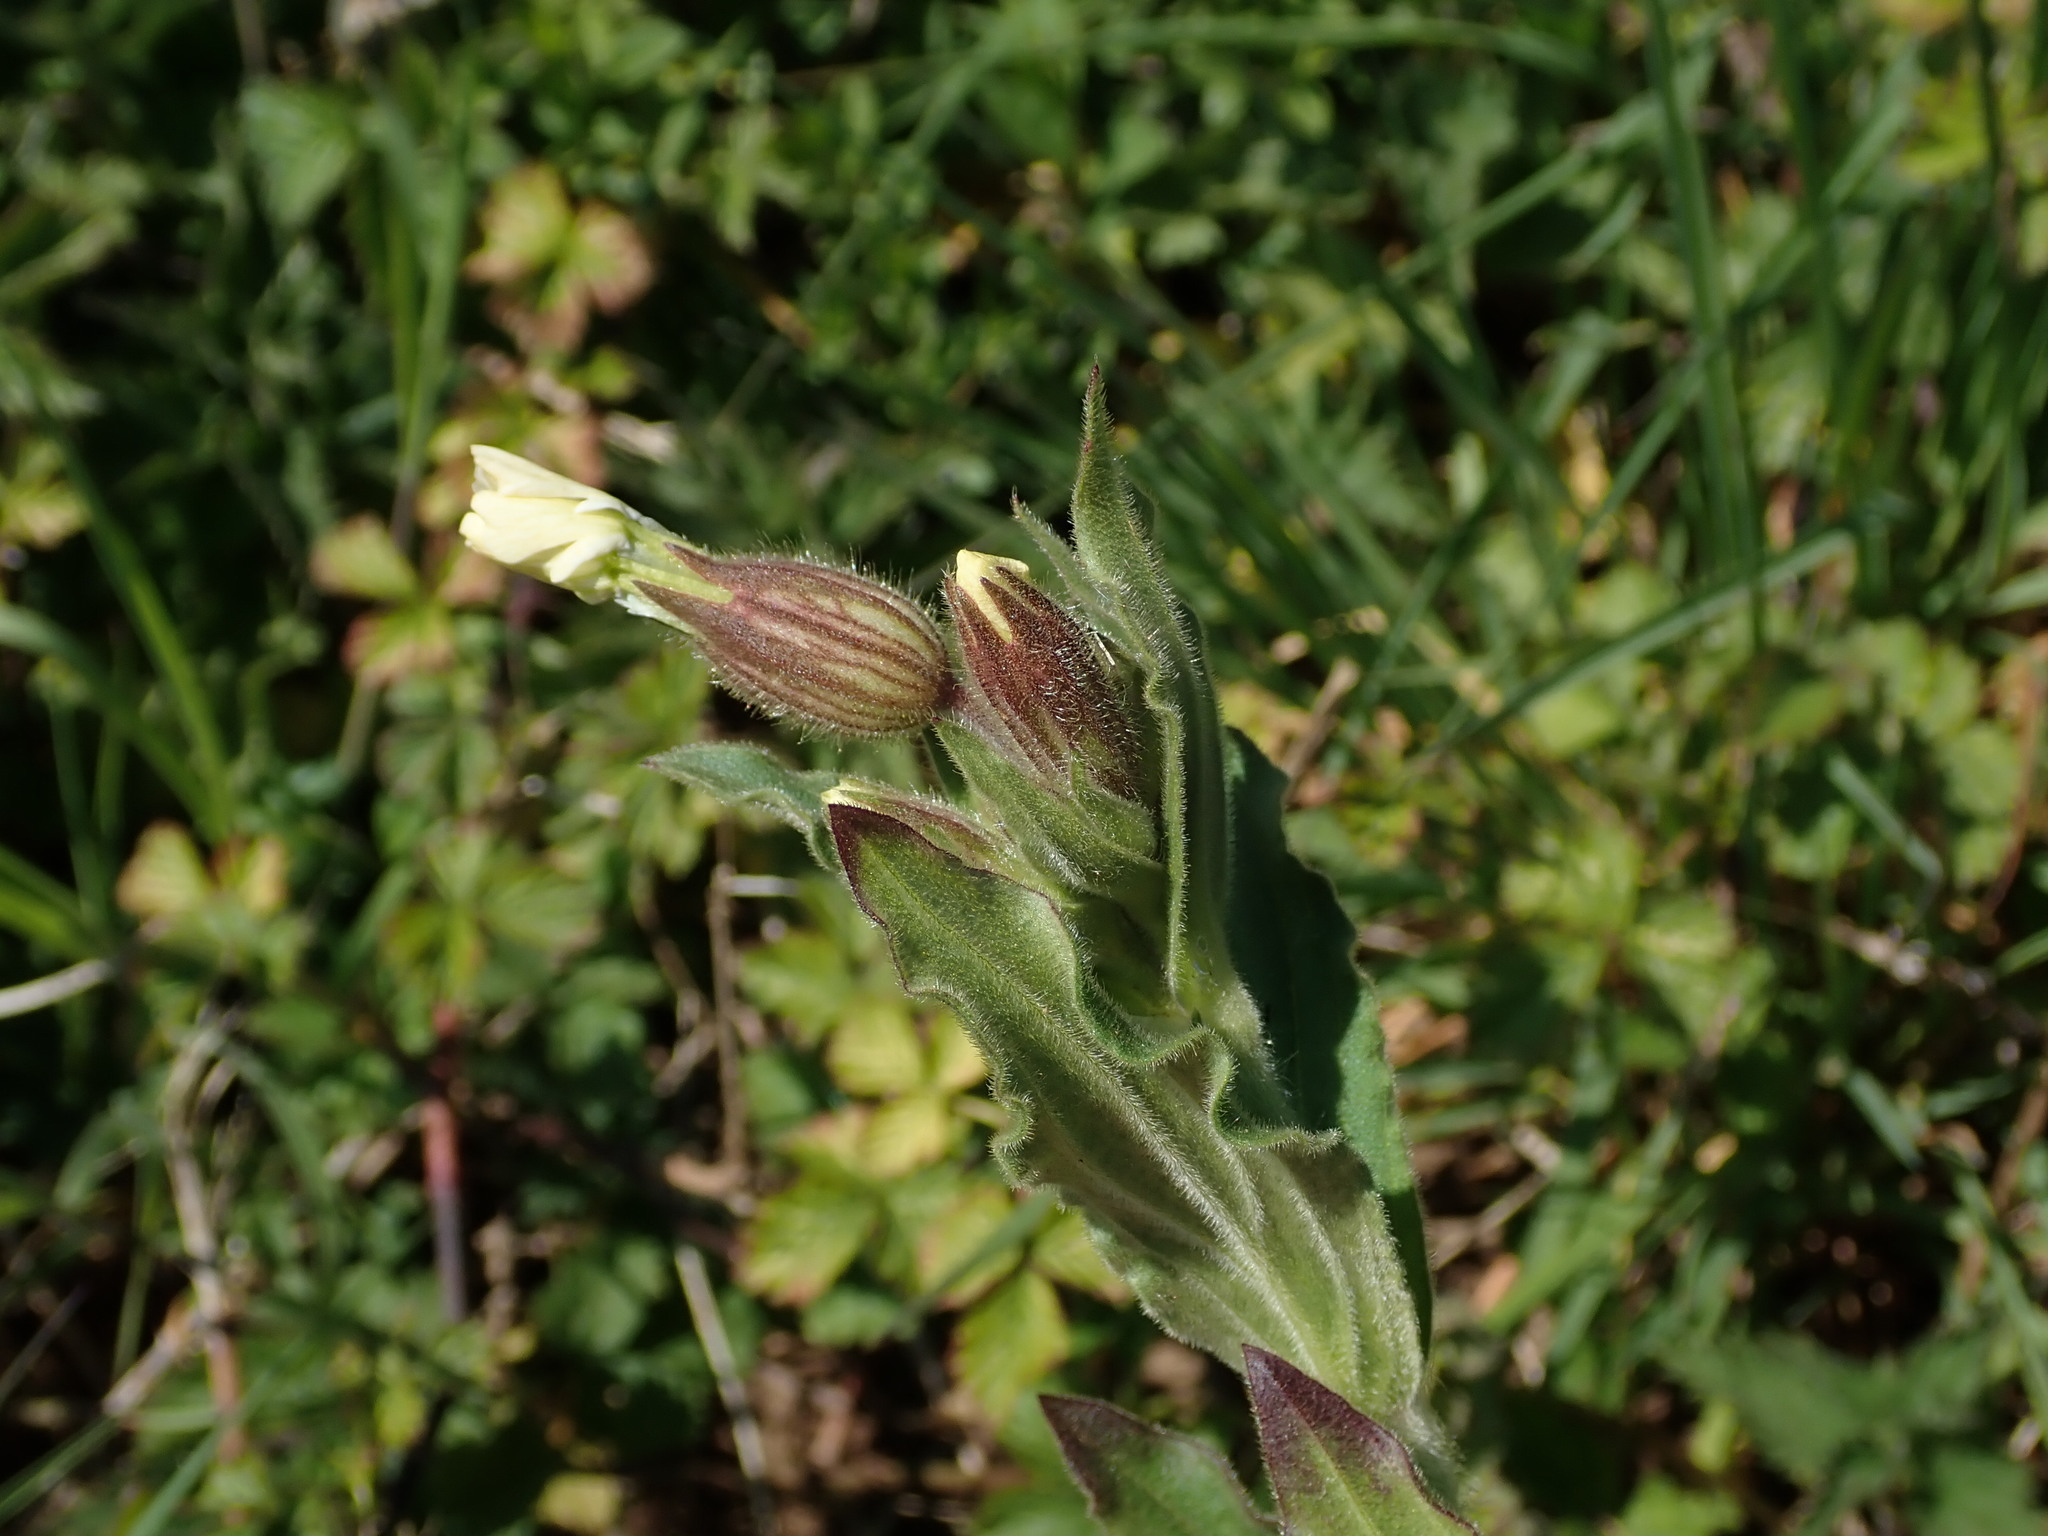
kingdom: Plantae
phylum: Tracheophyta
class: Magnoliopsida
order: Caryophyllales
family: Caryophyllaceae
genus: Silene
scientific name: Silene latifolia
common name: White campion
